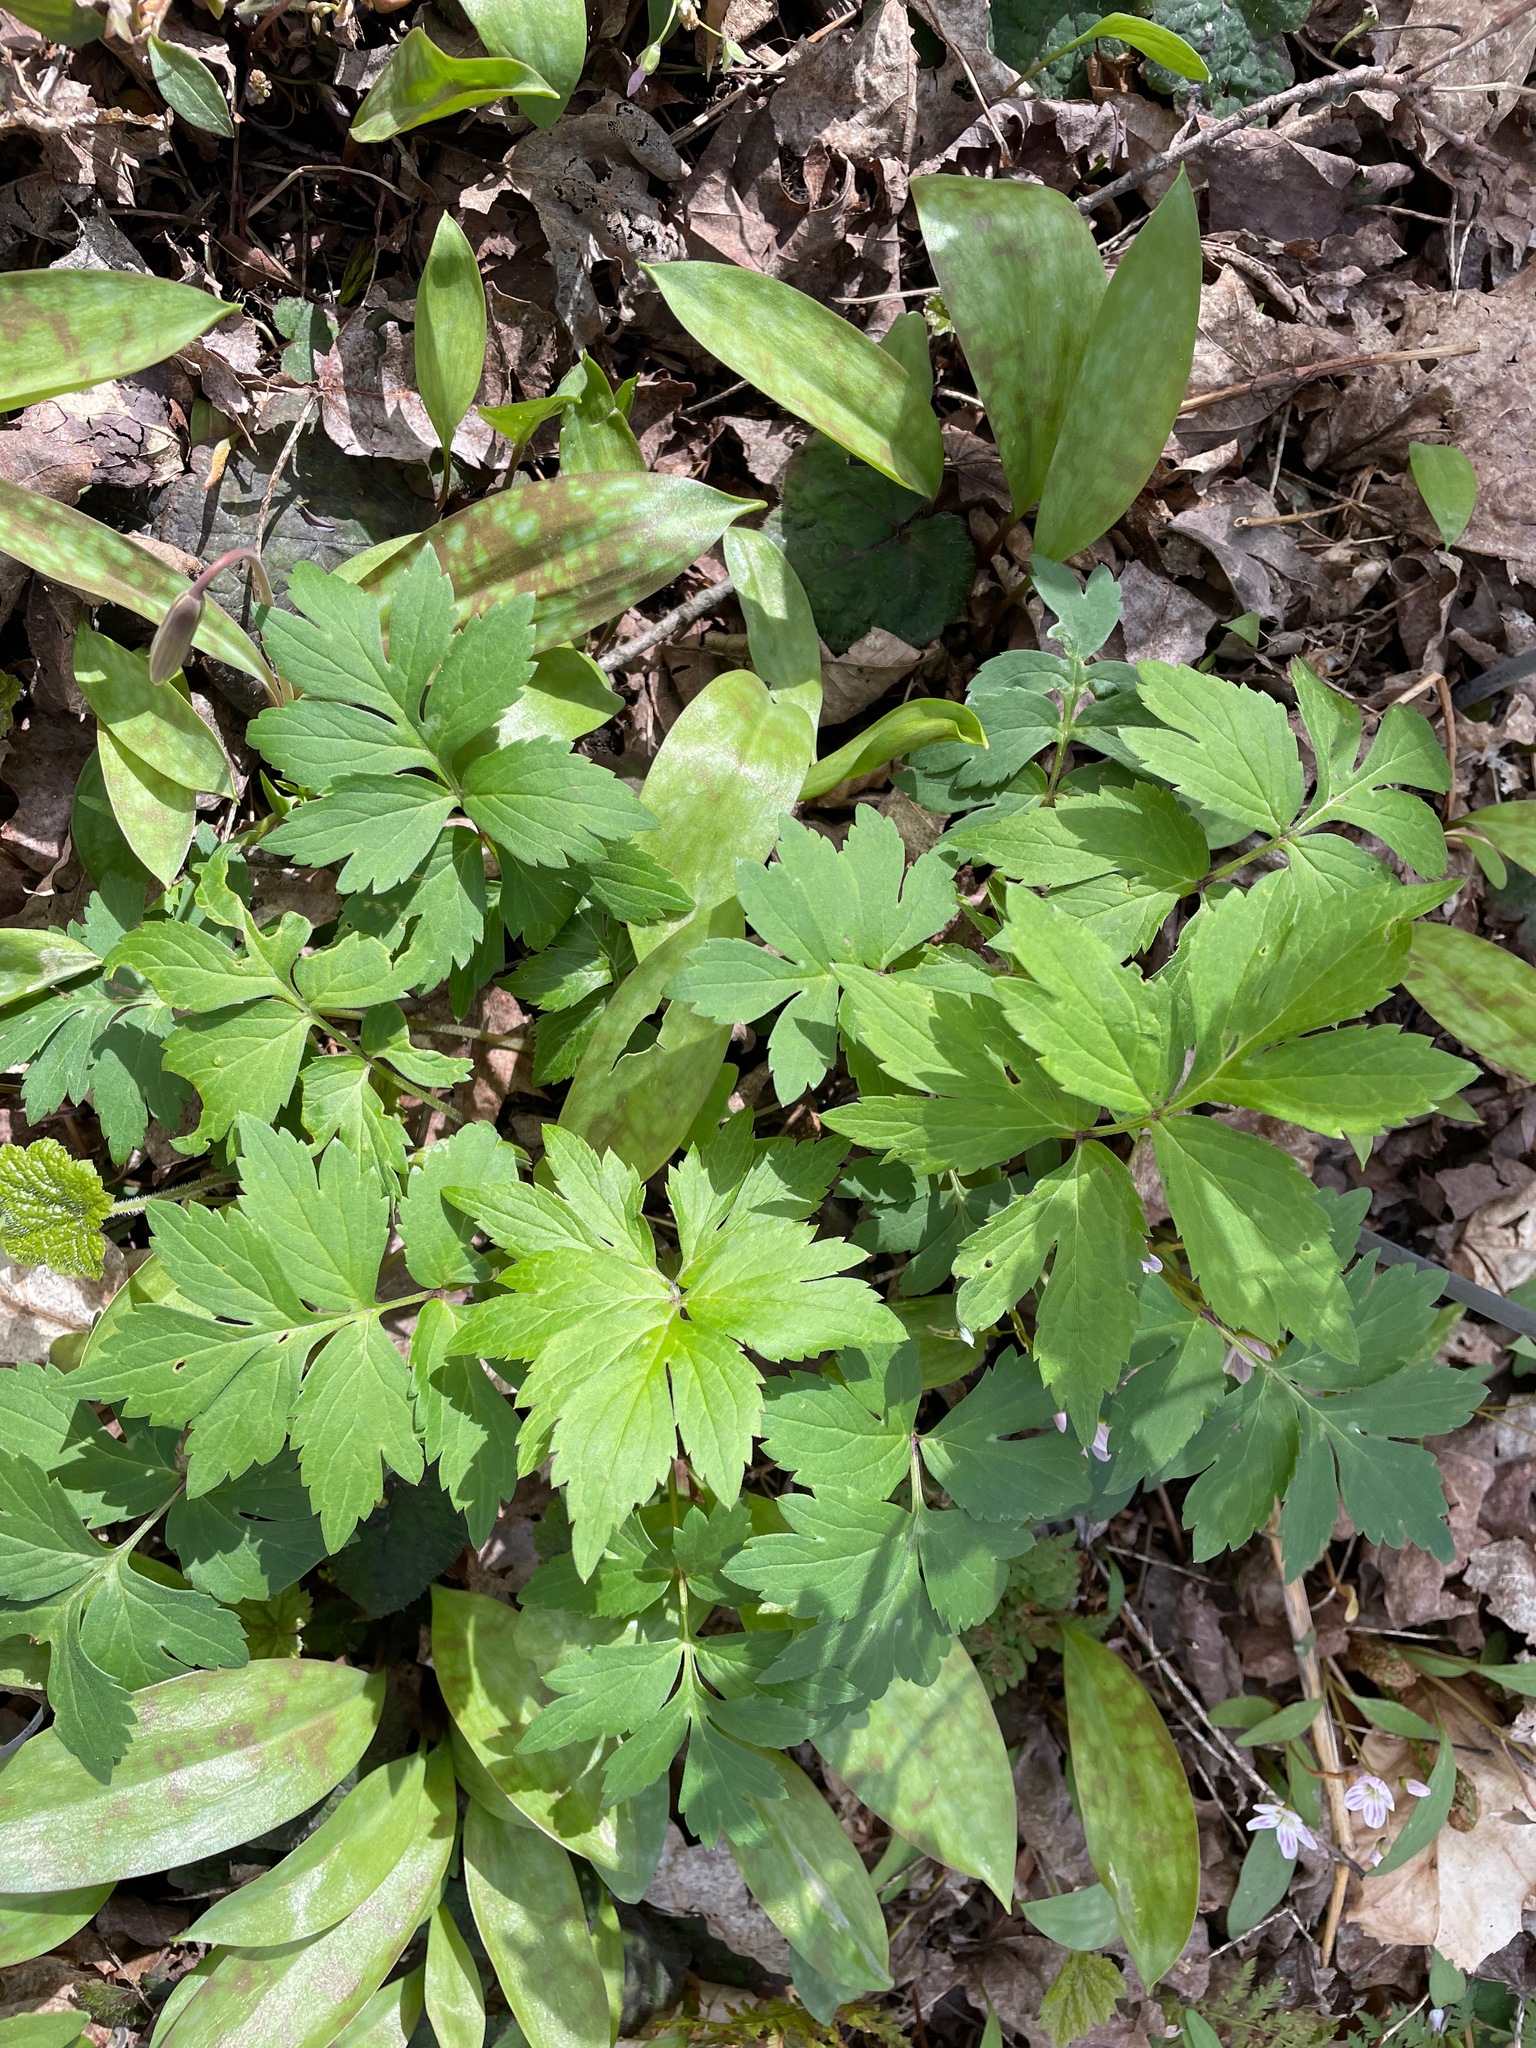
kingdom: Plantae
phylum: Tracheophyta
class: Magnoliopsida
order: Boraginales
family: Hydrophyllaceae
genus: Hydrophyllum
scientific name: Hydrophyllum virginianum
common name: Virginia waterleaf
